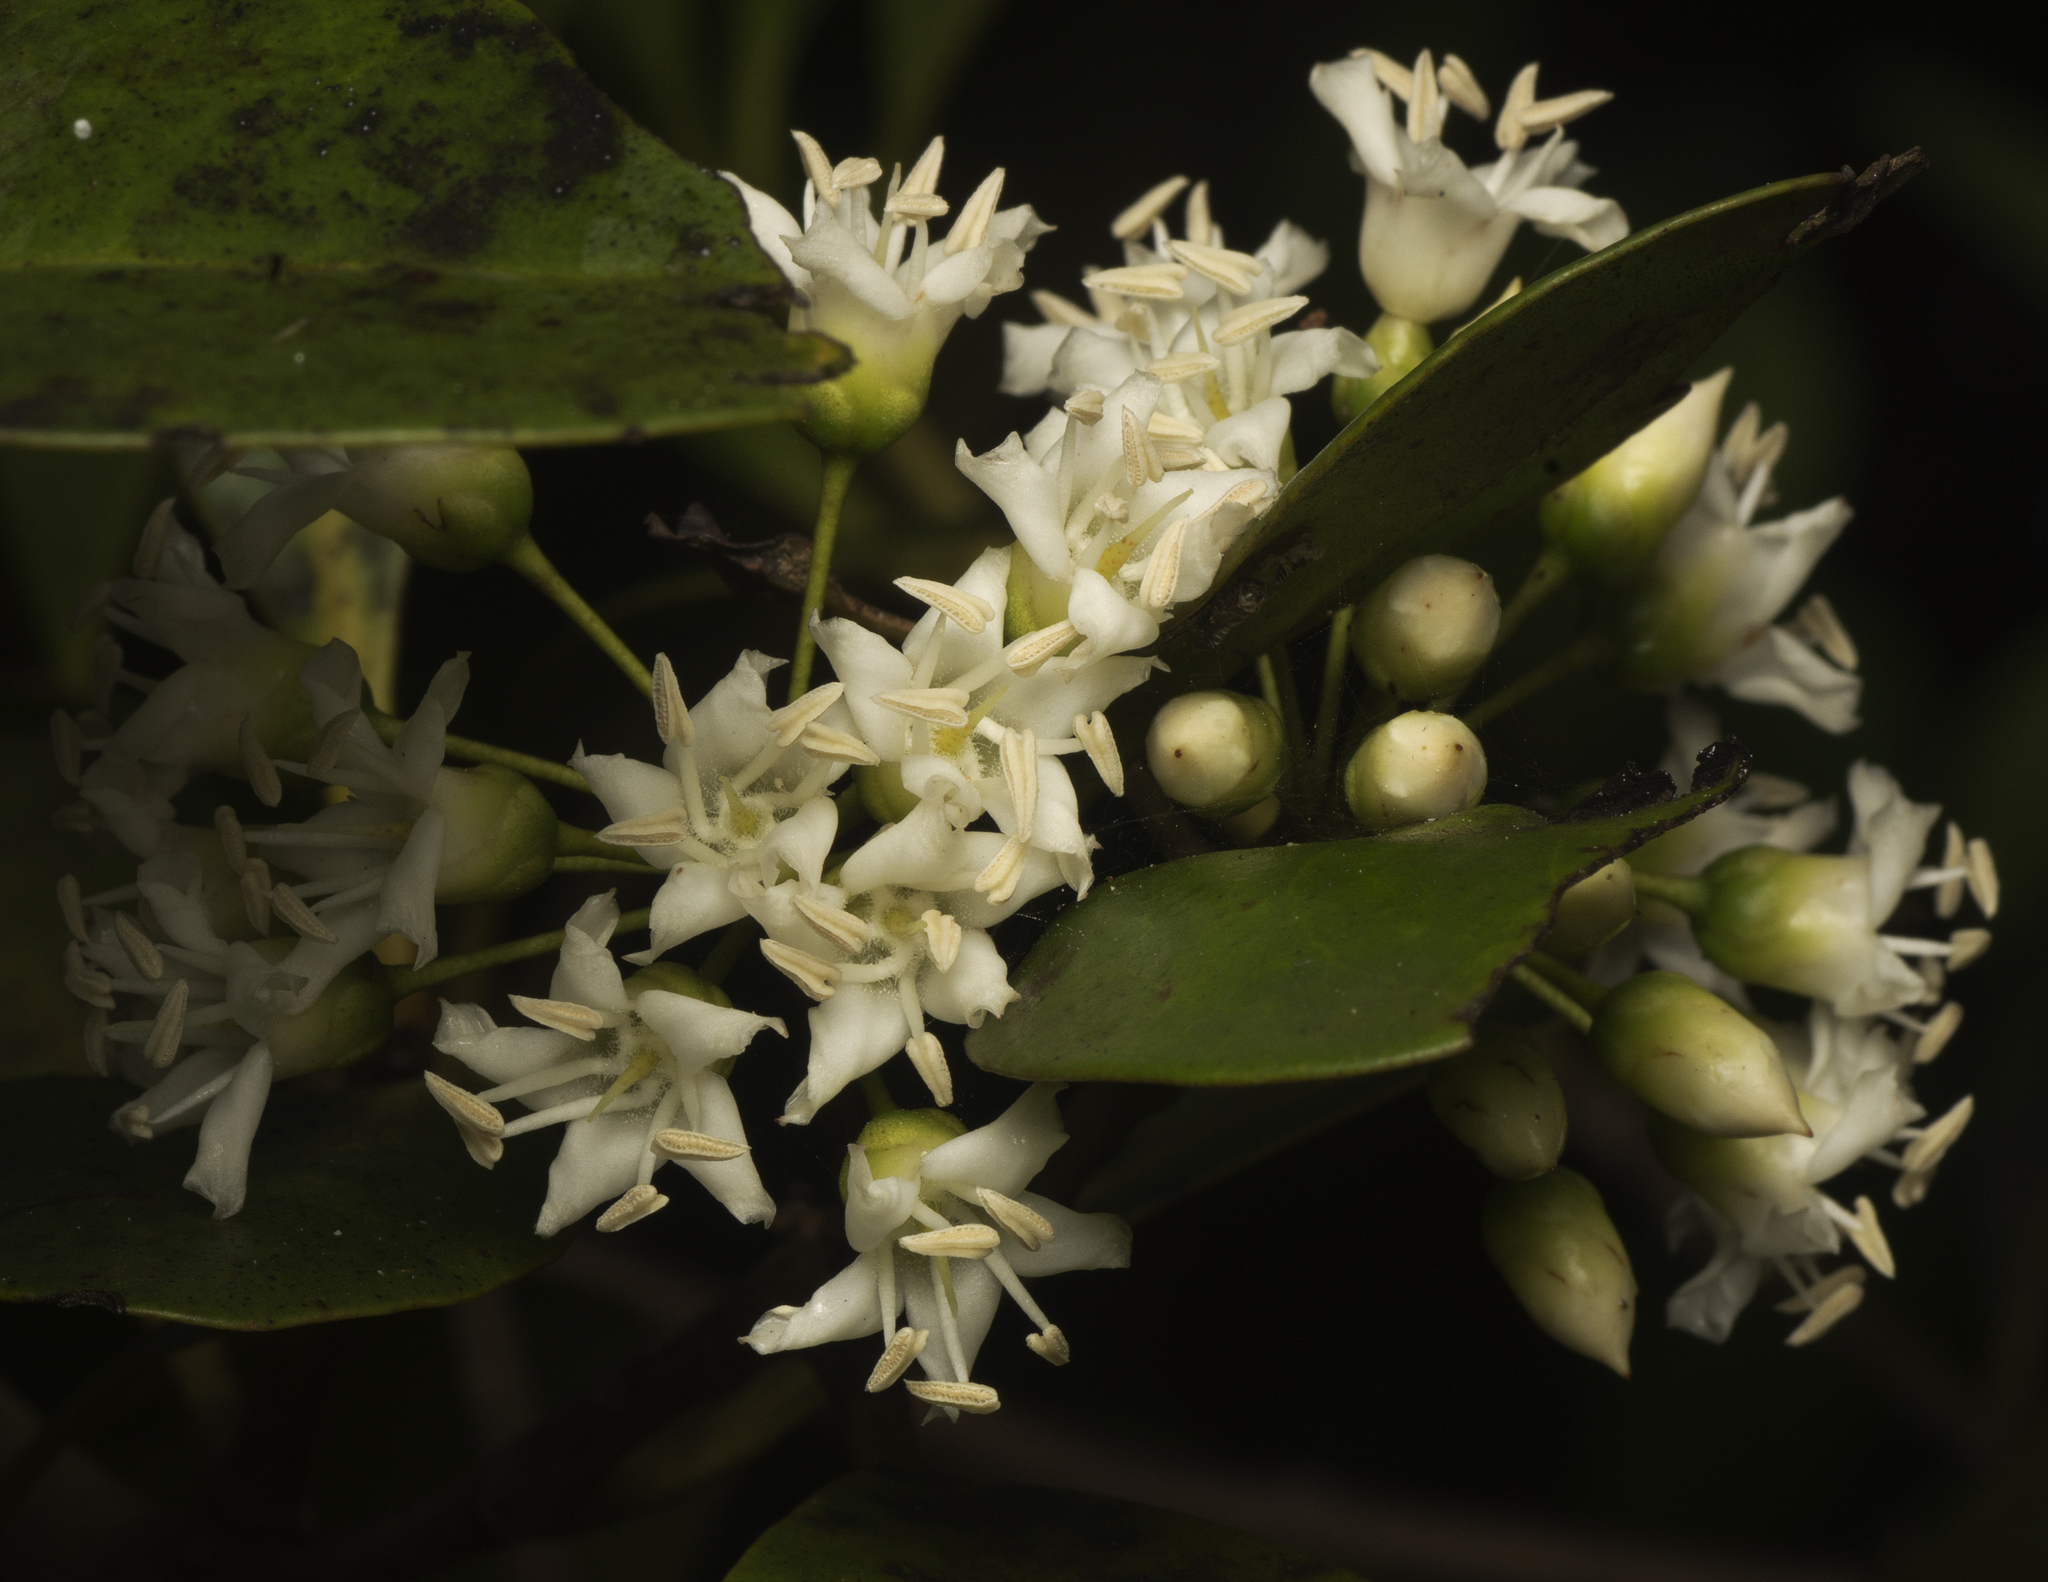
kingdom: Plantae
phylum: Tracheophyta
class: Magnoliopsida
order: Ericales
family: Primulaceae
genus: Aegiceras
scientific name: Aegiceras corniculatum
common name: River mangrove
